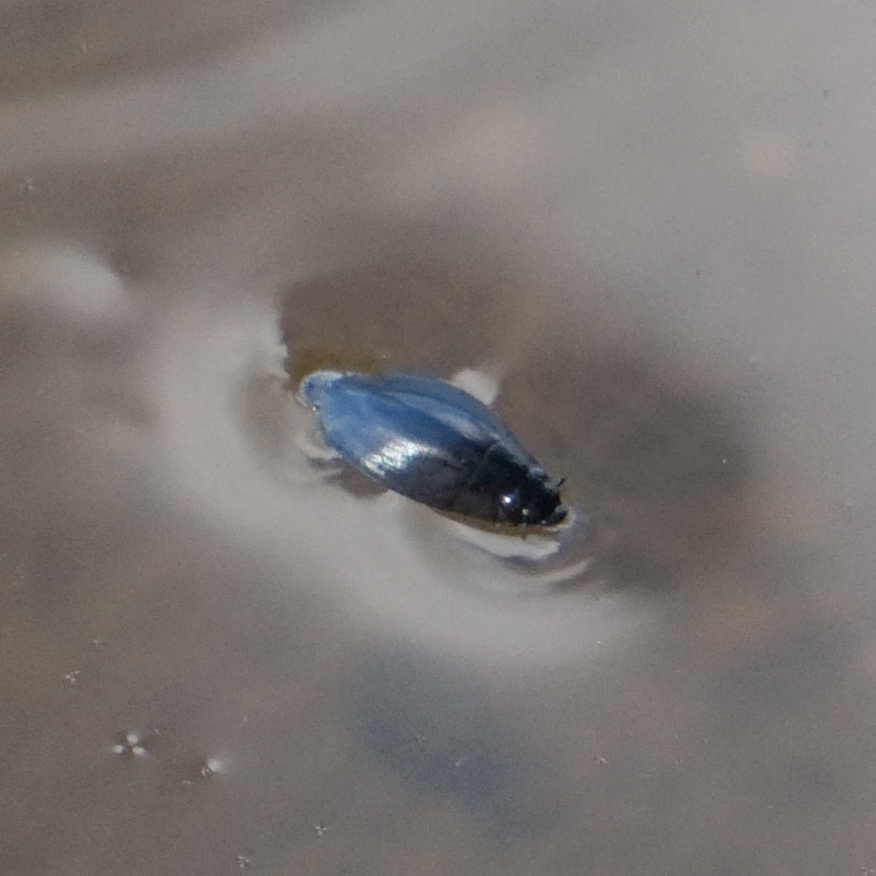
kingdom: Animalia
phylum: Arthropoda
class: Insecta
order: Coleoptera
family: Gyrinidae
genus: Dineutus
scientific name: Dineutus
